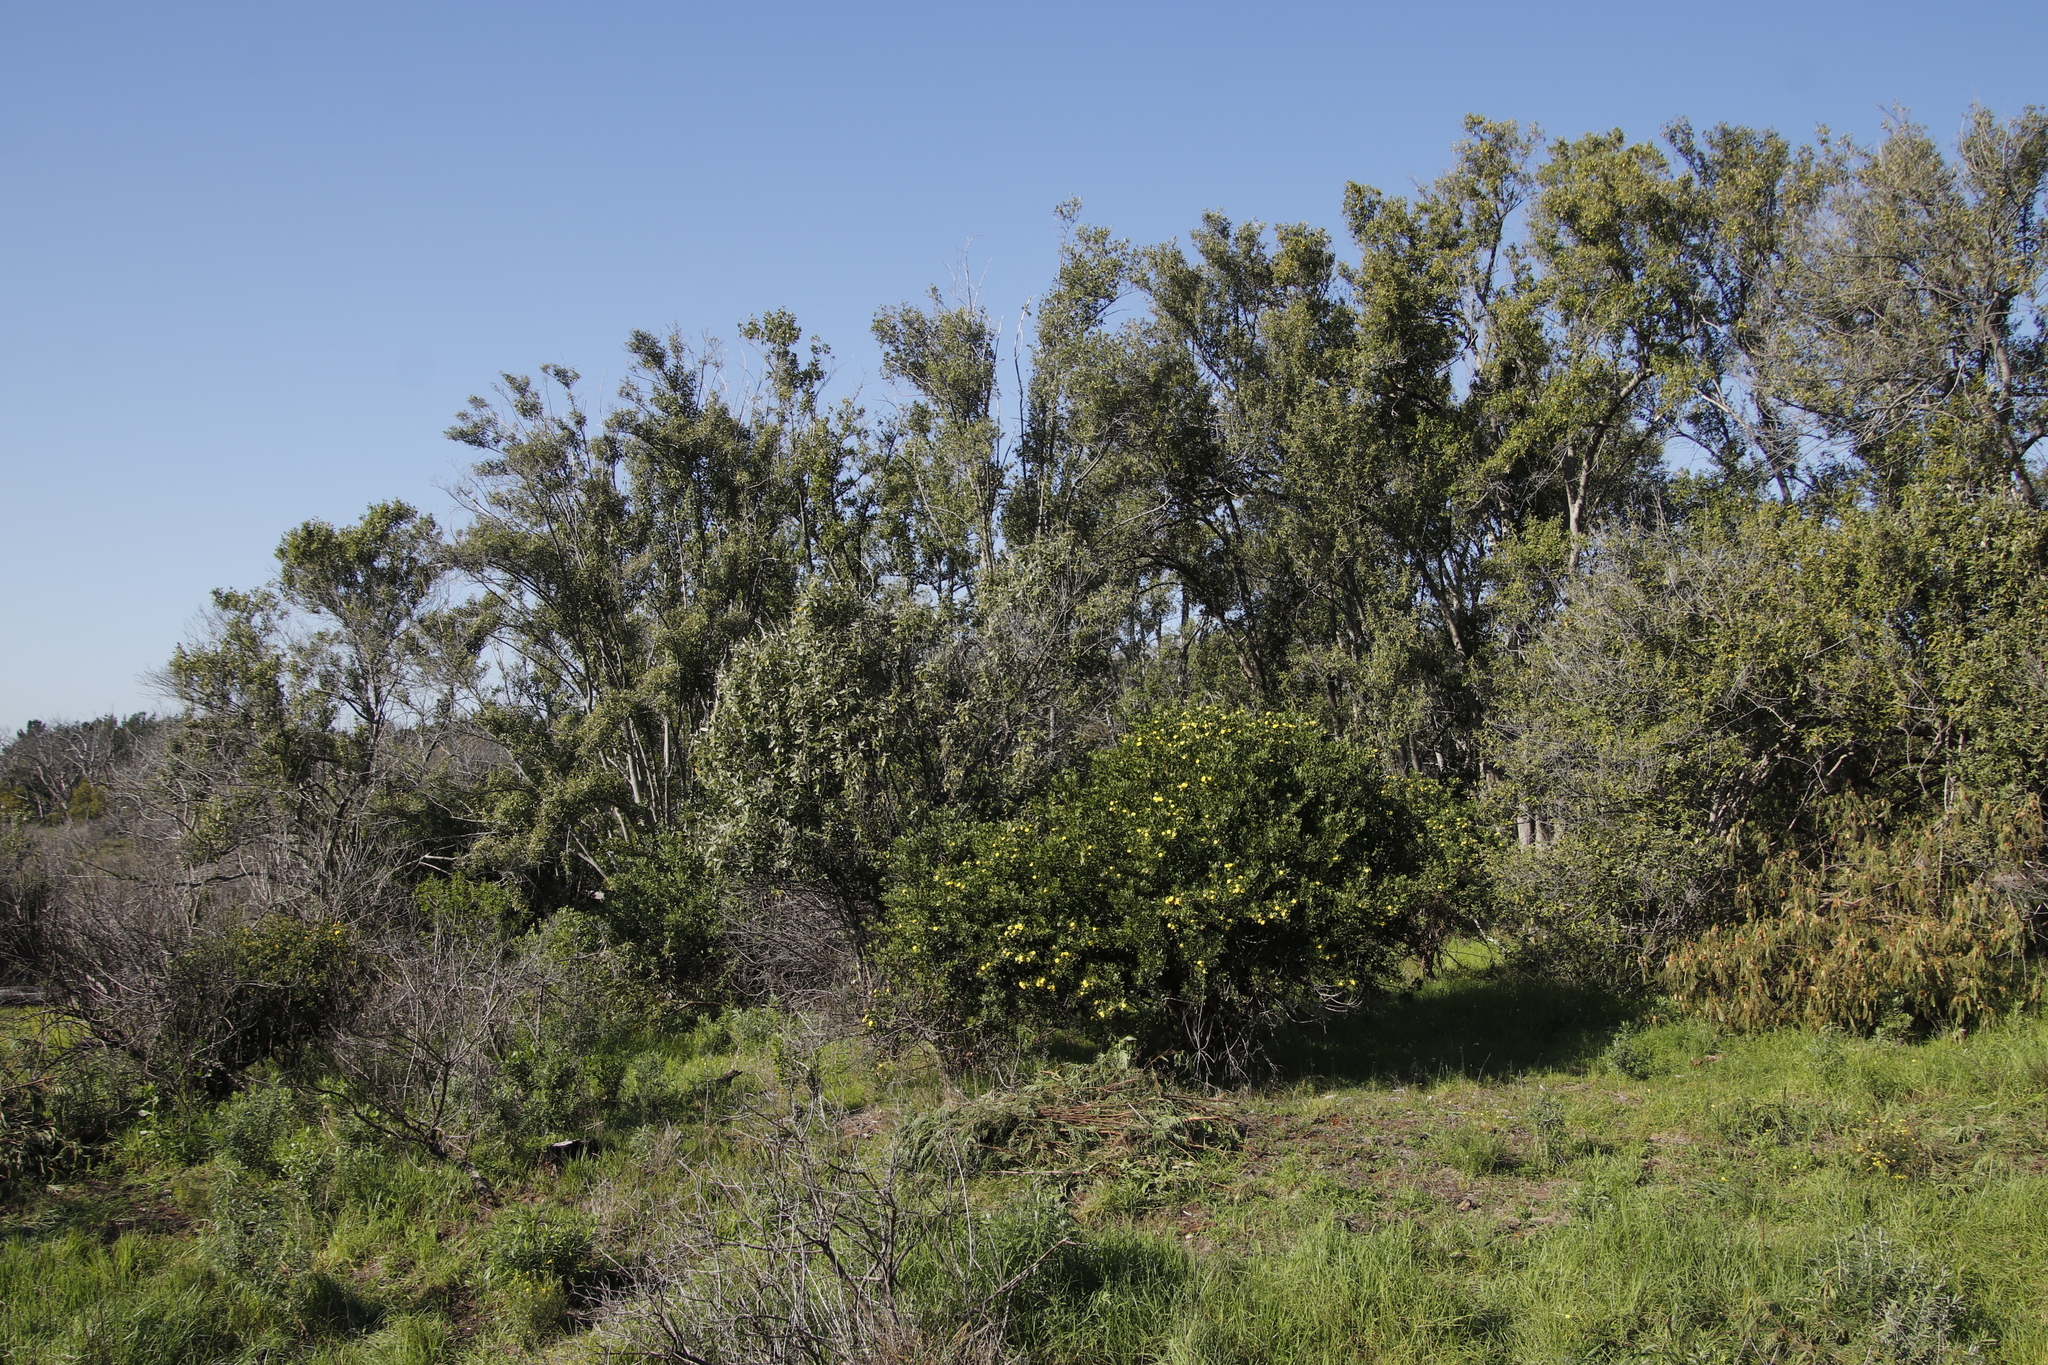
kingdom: Plantae
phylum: Tracheophyta
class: Magnoliopsida
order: Malpighiales
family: Achariaceae
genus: Kiggelaria
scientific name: Kiggelaria africana
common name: Wild peach
